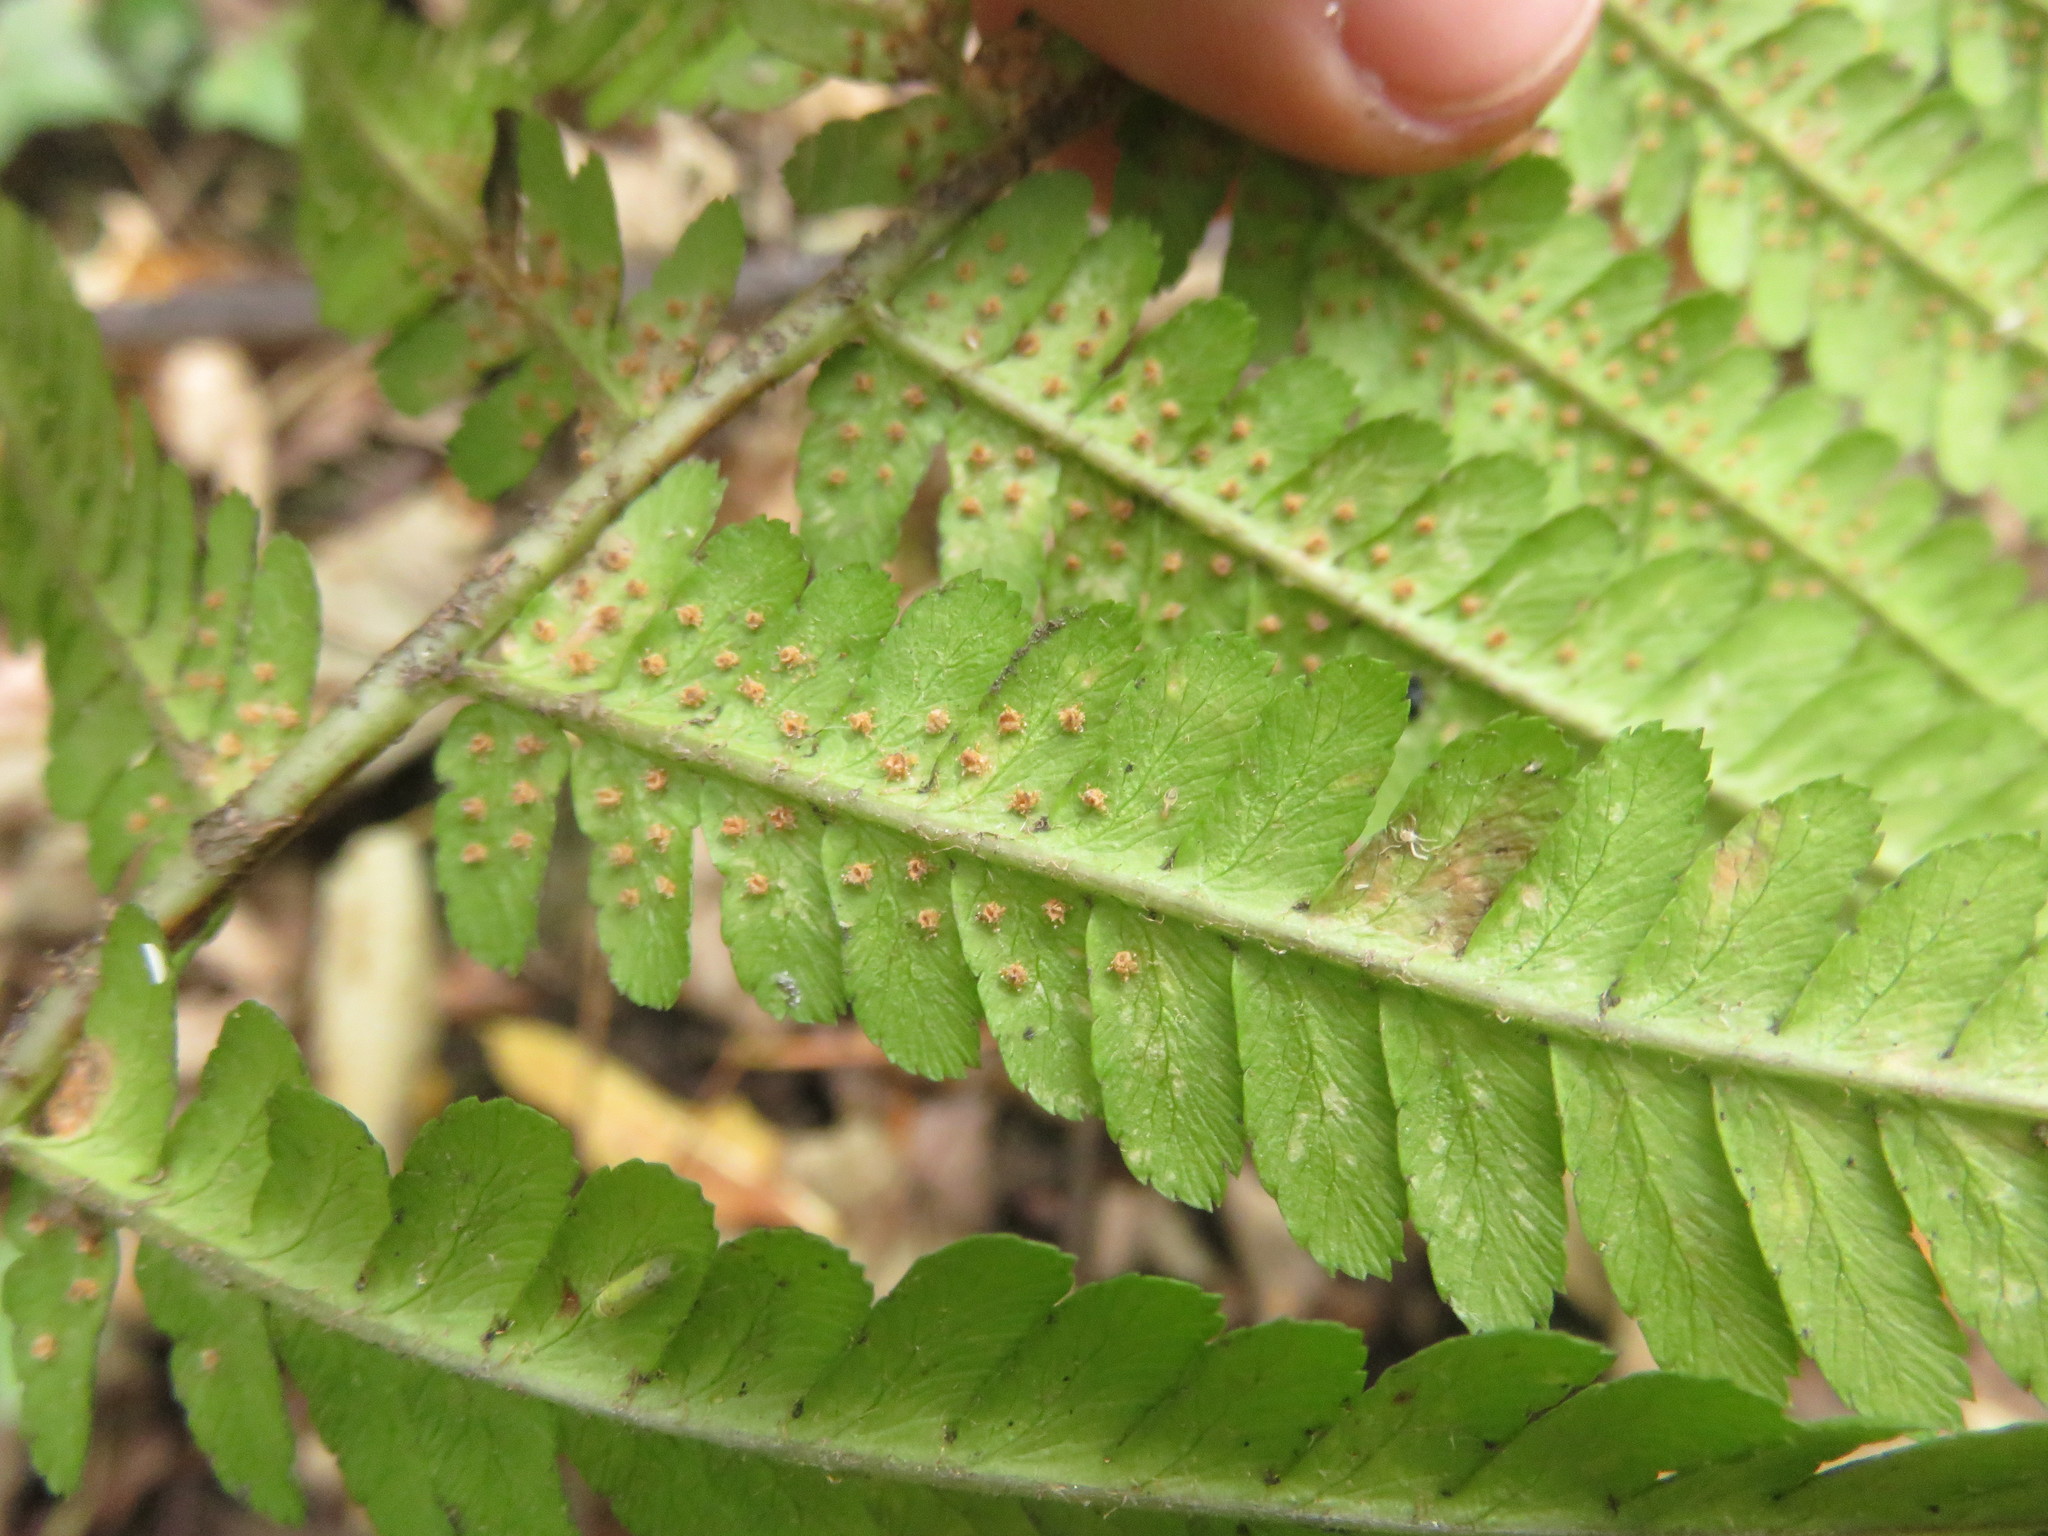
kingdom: Plantae
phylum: Tracheophyta
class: Polypodiopsida
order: Polypodiales
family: Dryopteridaceae
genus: Dryopteris
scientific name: Dryopteris filix-mas
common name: Male fern
